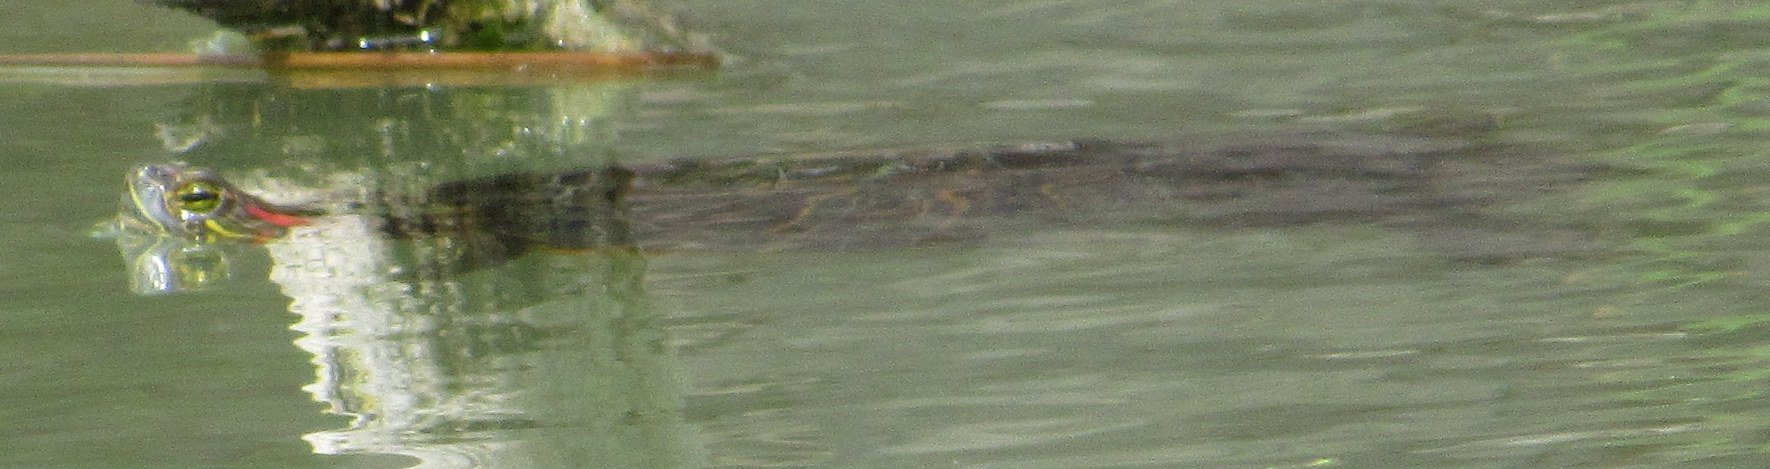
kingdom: Animalia
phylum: Chordata
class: Testudines
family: Emydidae
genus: Trachemys
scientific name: Trachemys scripta
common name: Slider
